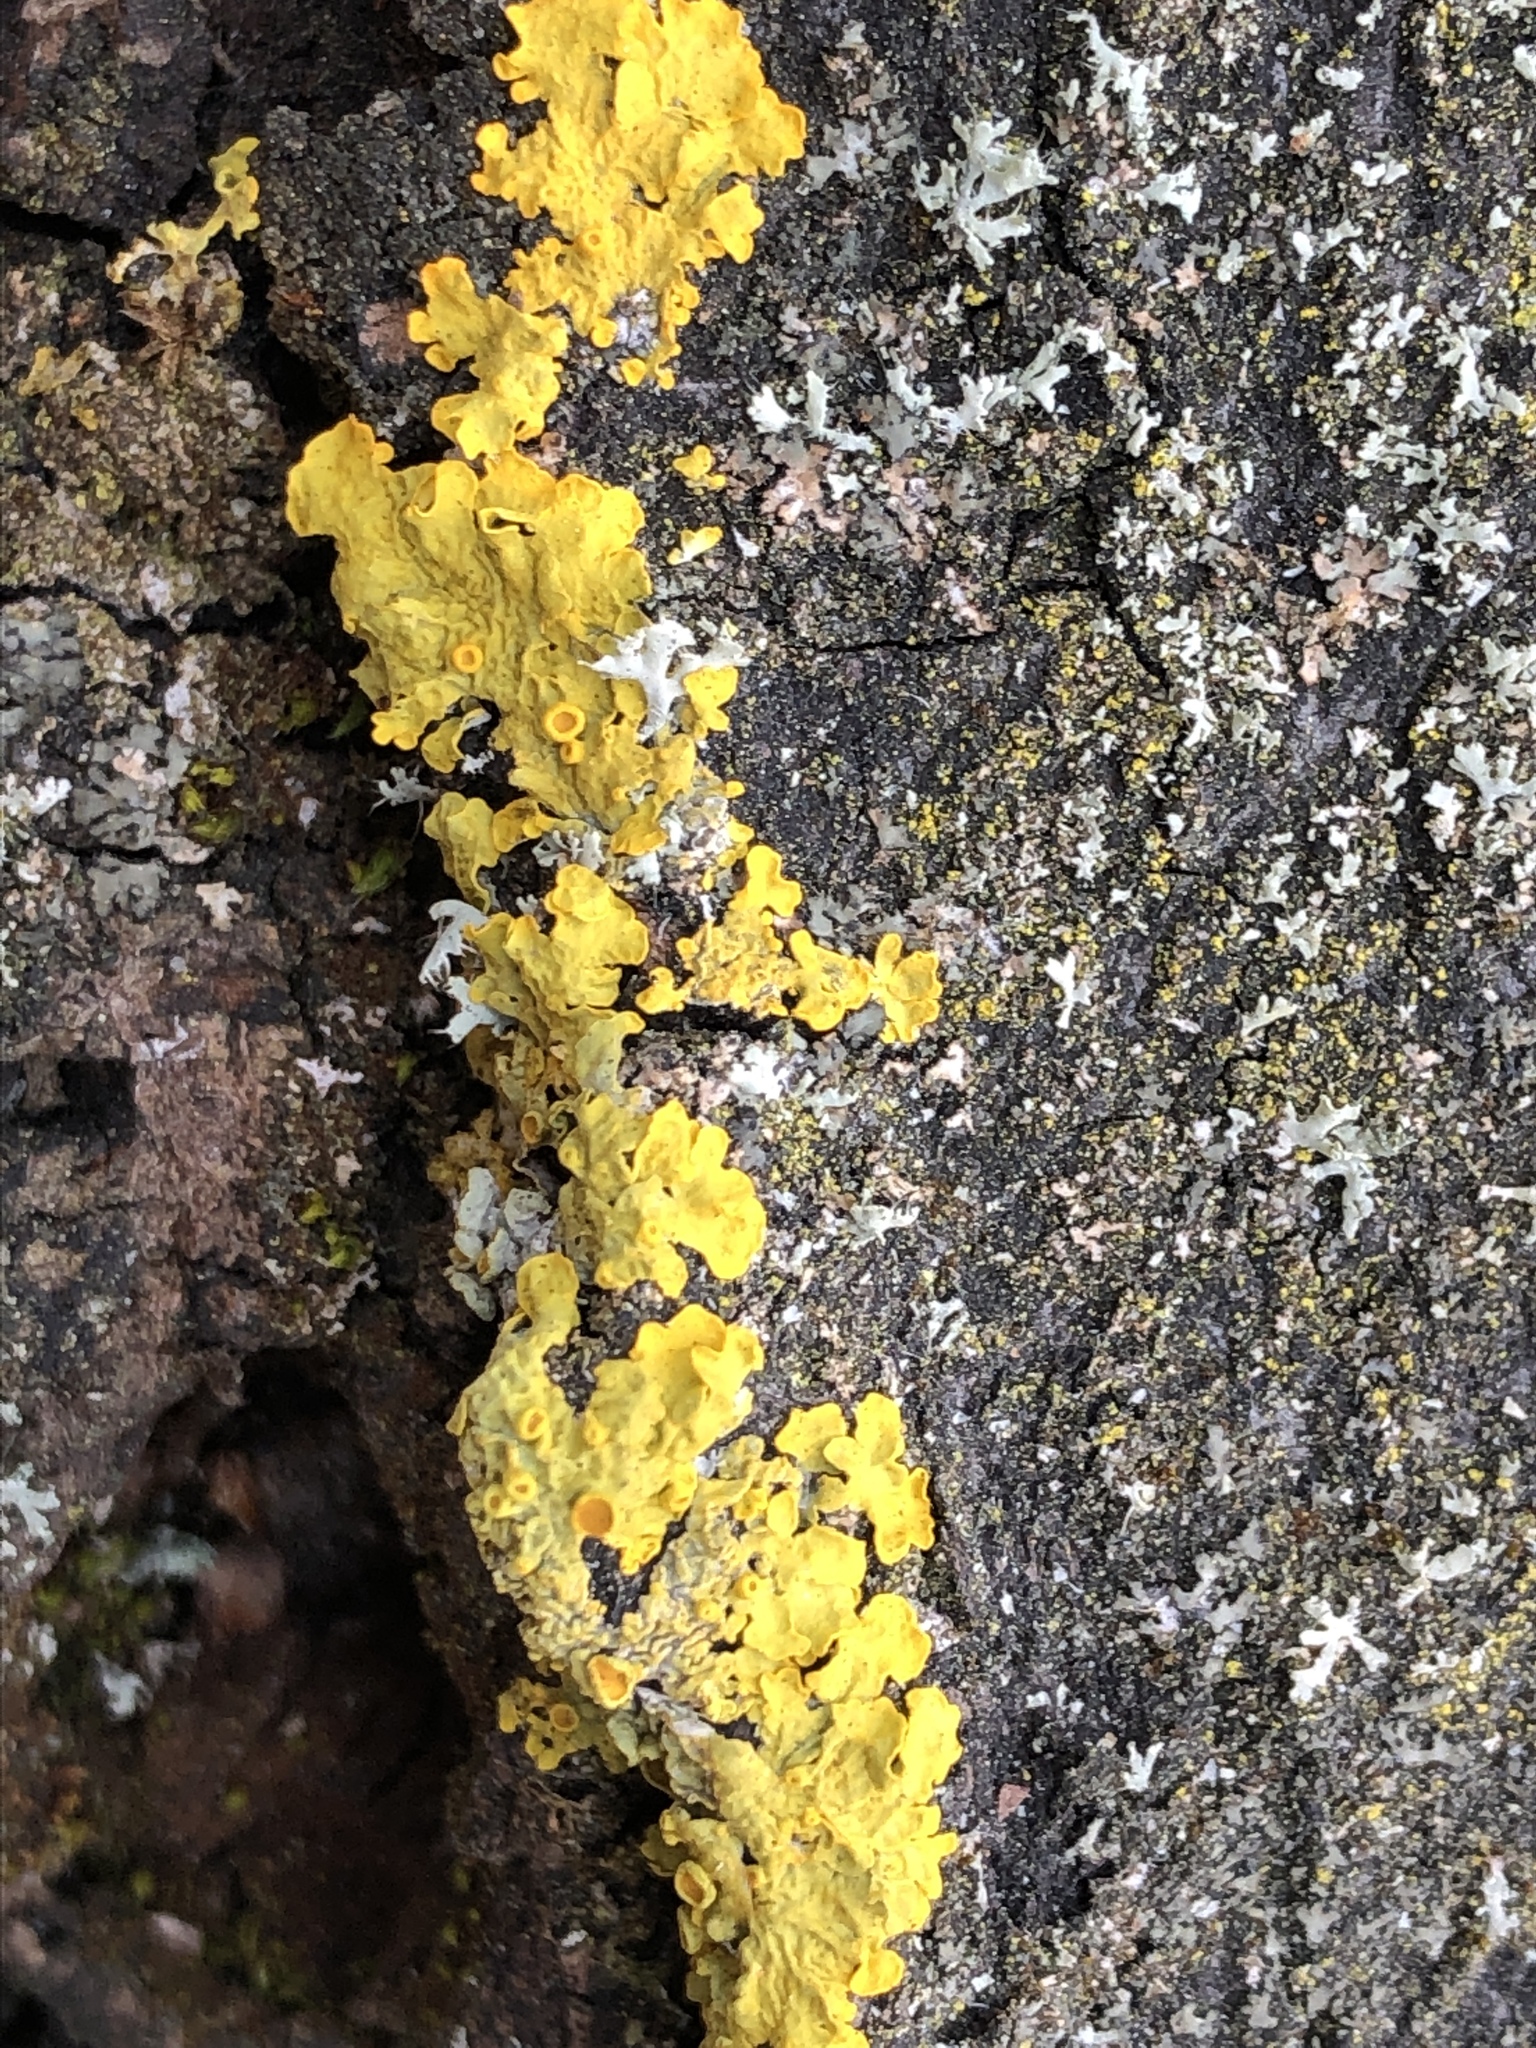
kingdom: Fungi
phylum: Ascomycota
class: Lecanoromycetes
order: Teloschistales
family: Teloschistaceae
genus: Xanthoria
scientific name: Xanthoria parietina
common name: Common orange lichen
